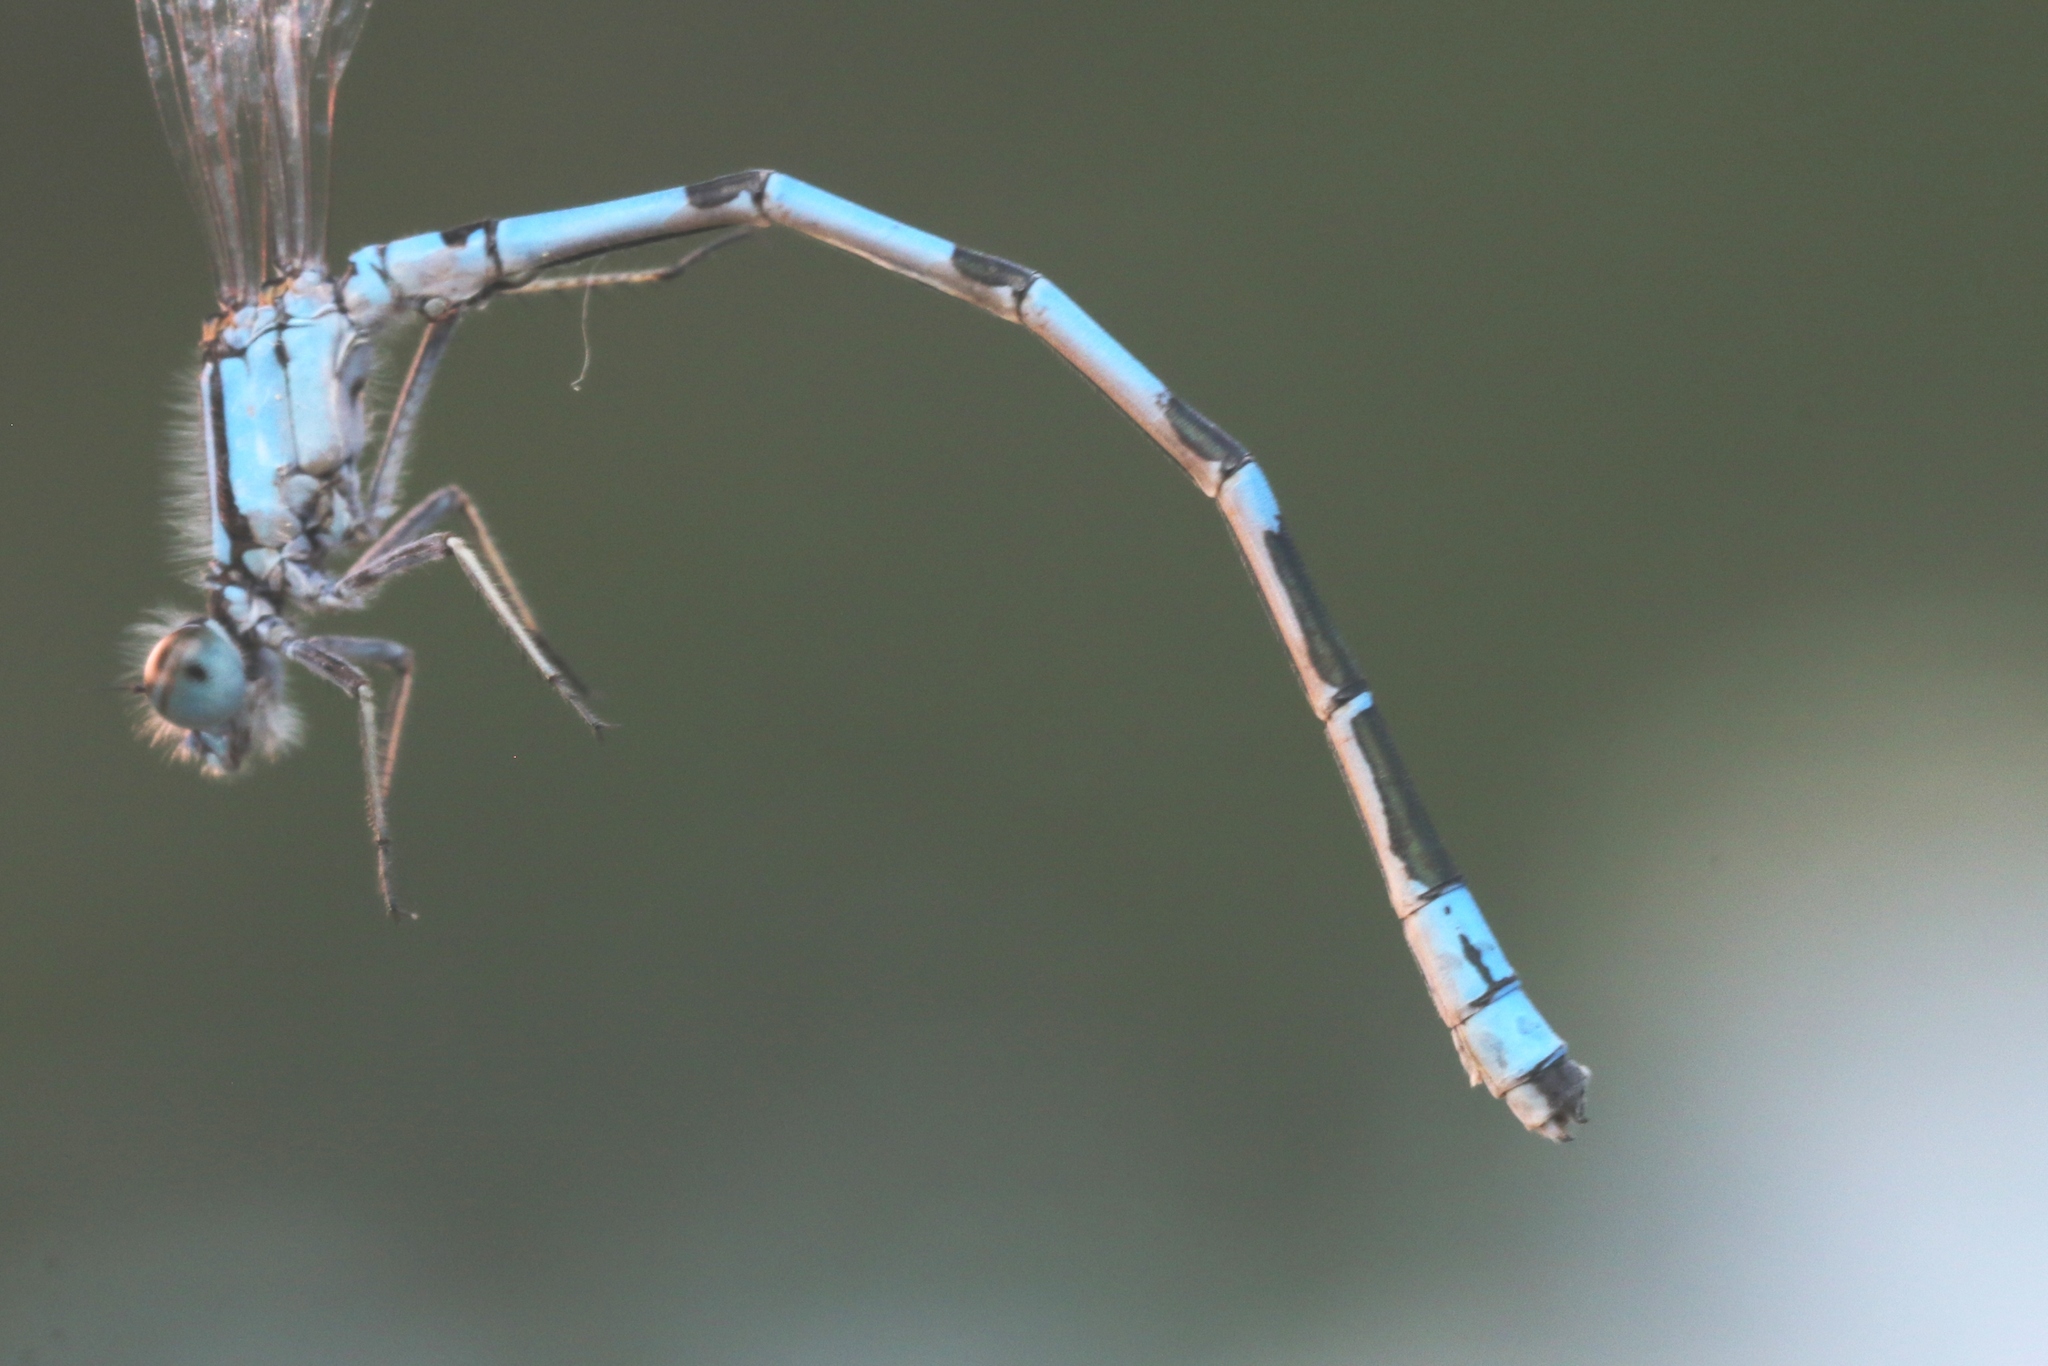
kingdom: Animalia
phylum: Arthropoda
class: Insecta
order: Odonata
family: Coenagrionidae
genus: Enallagma
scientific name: Enallagma hageni
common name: Hagen's bluet
